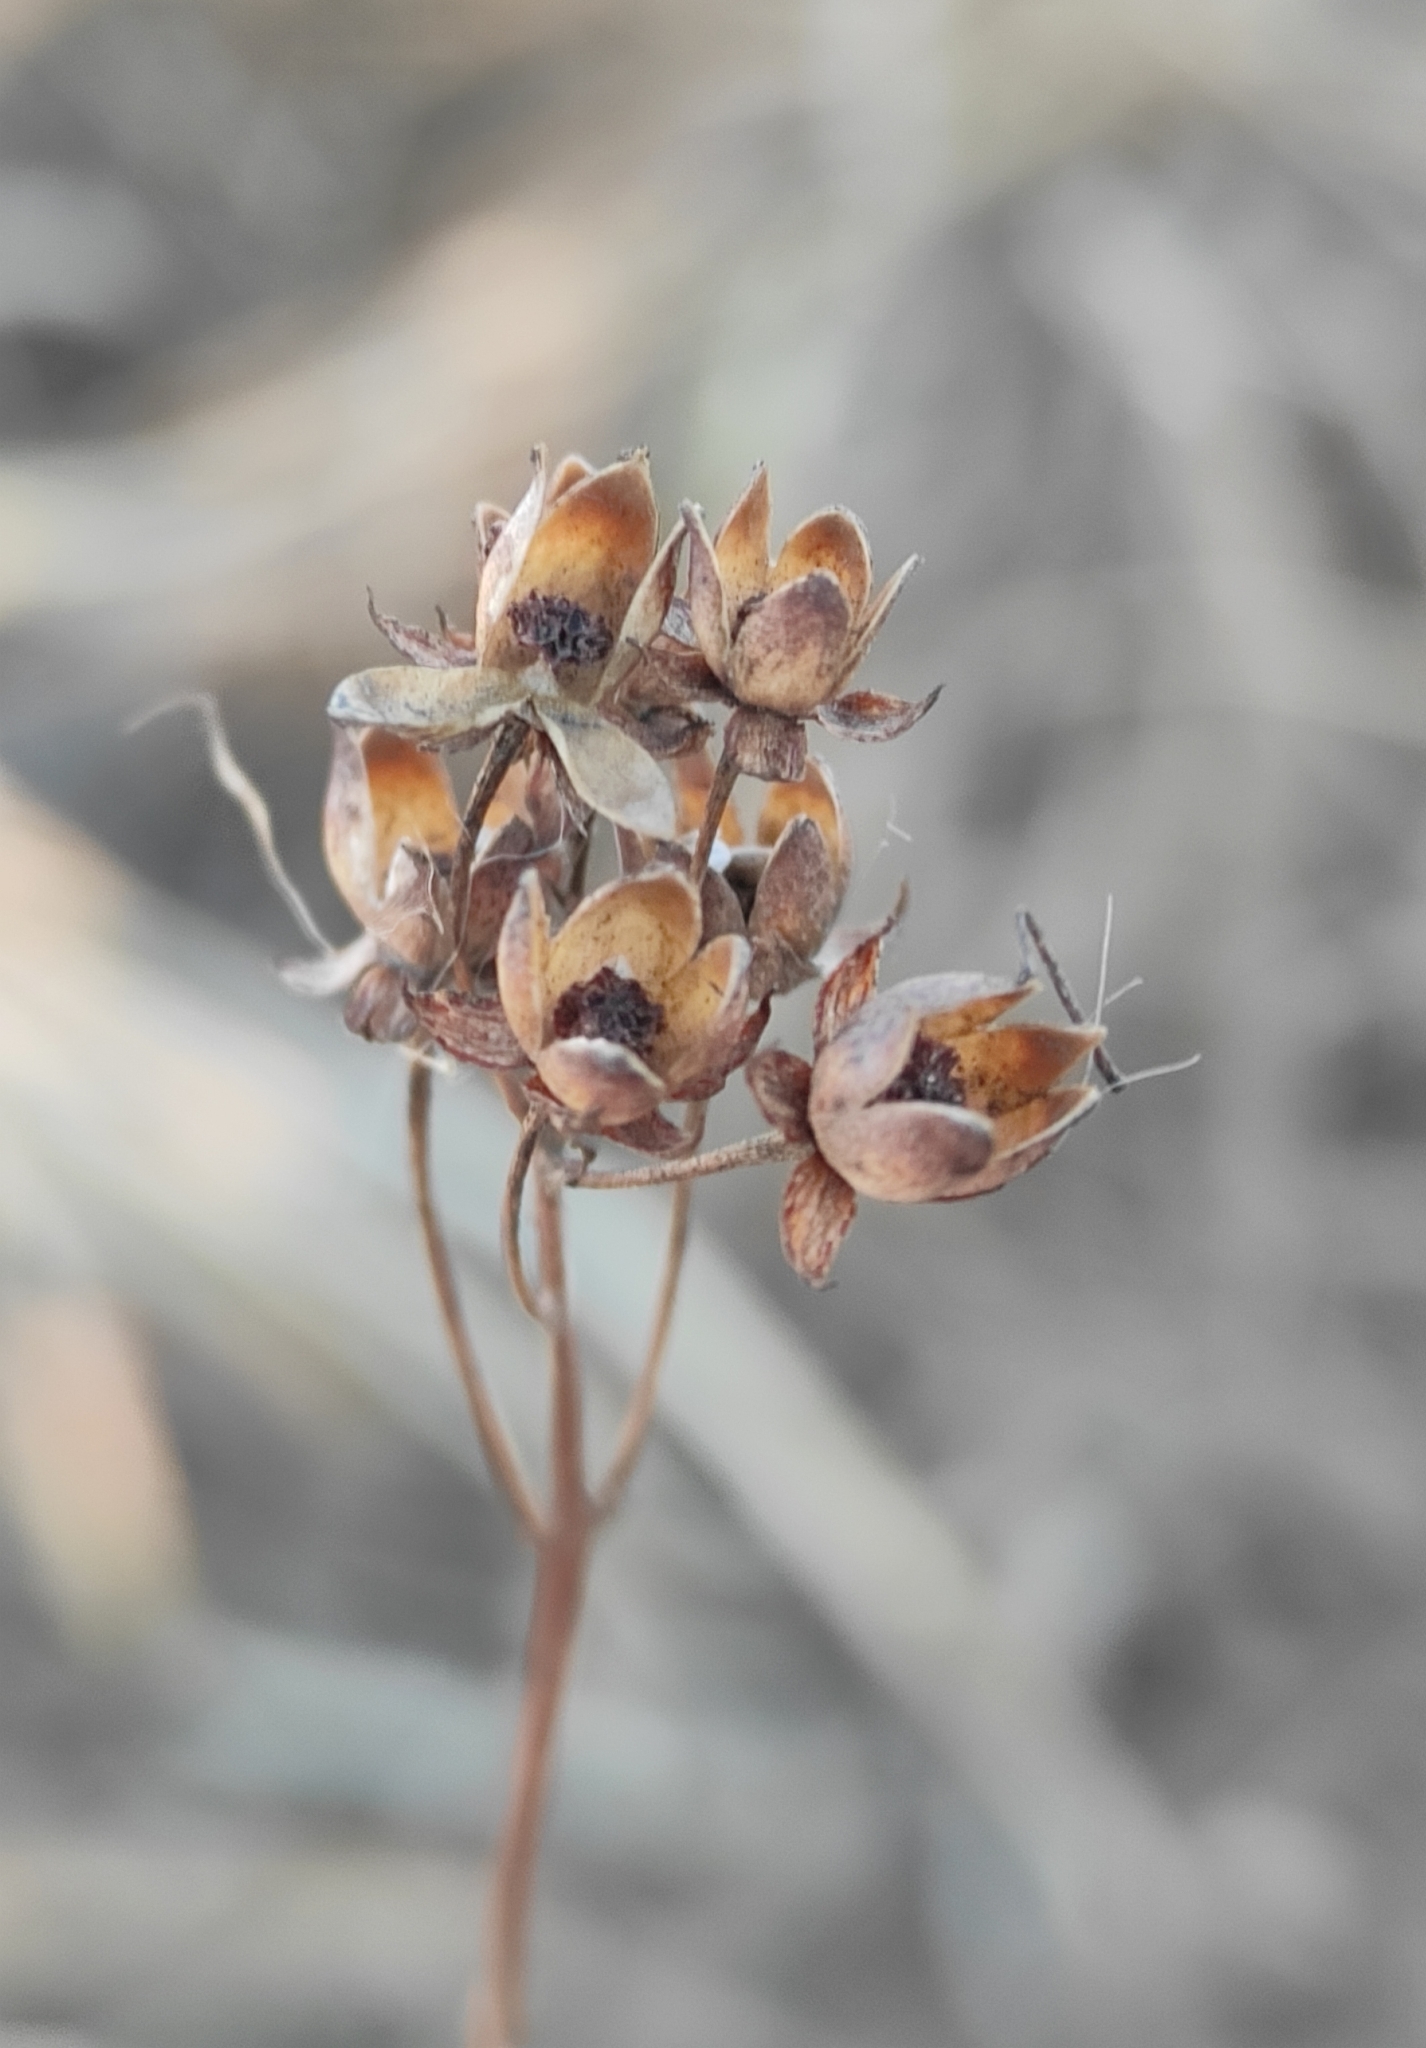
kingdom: Plantae
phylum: Tracheophyta
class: Magnoliopsida
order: Ericales
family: Primulaceae
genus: Lysimachia
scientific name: Lysimachia davurica
